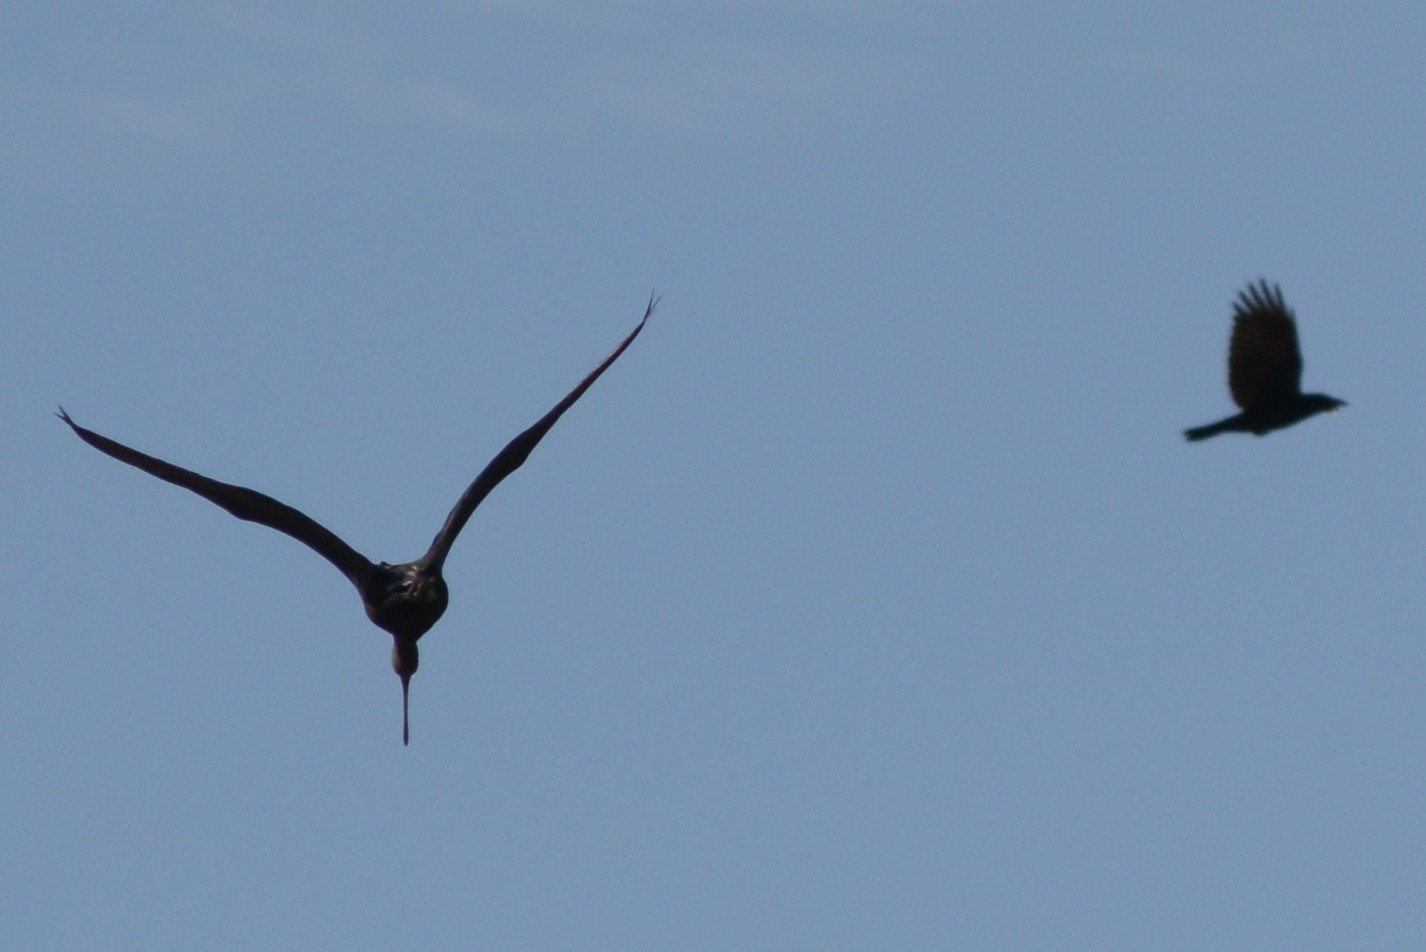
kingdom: Animalia
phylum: Chordata
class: Aves
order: Pelecaniformes
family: Threskiornithidae
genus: Plegadis
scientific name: Plegadis chihi
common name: White-faced ibis
